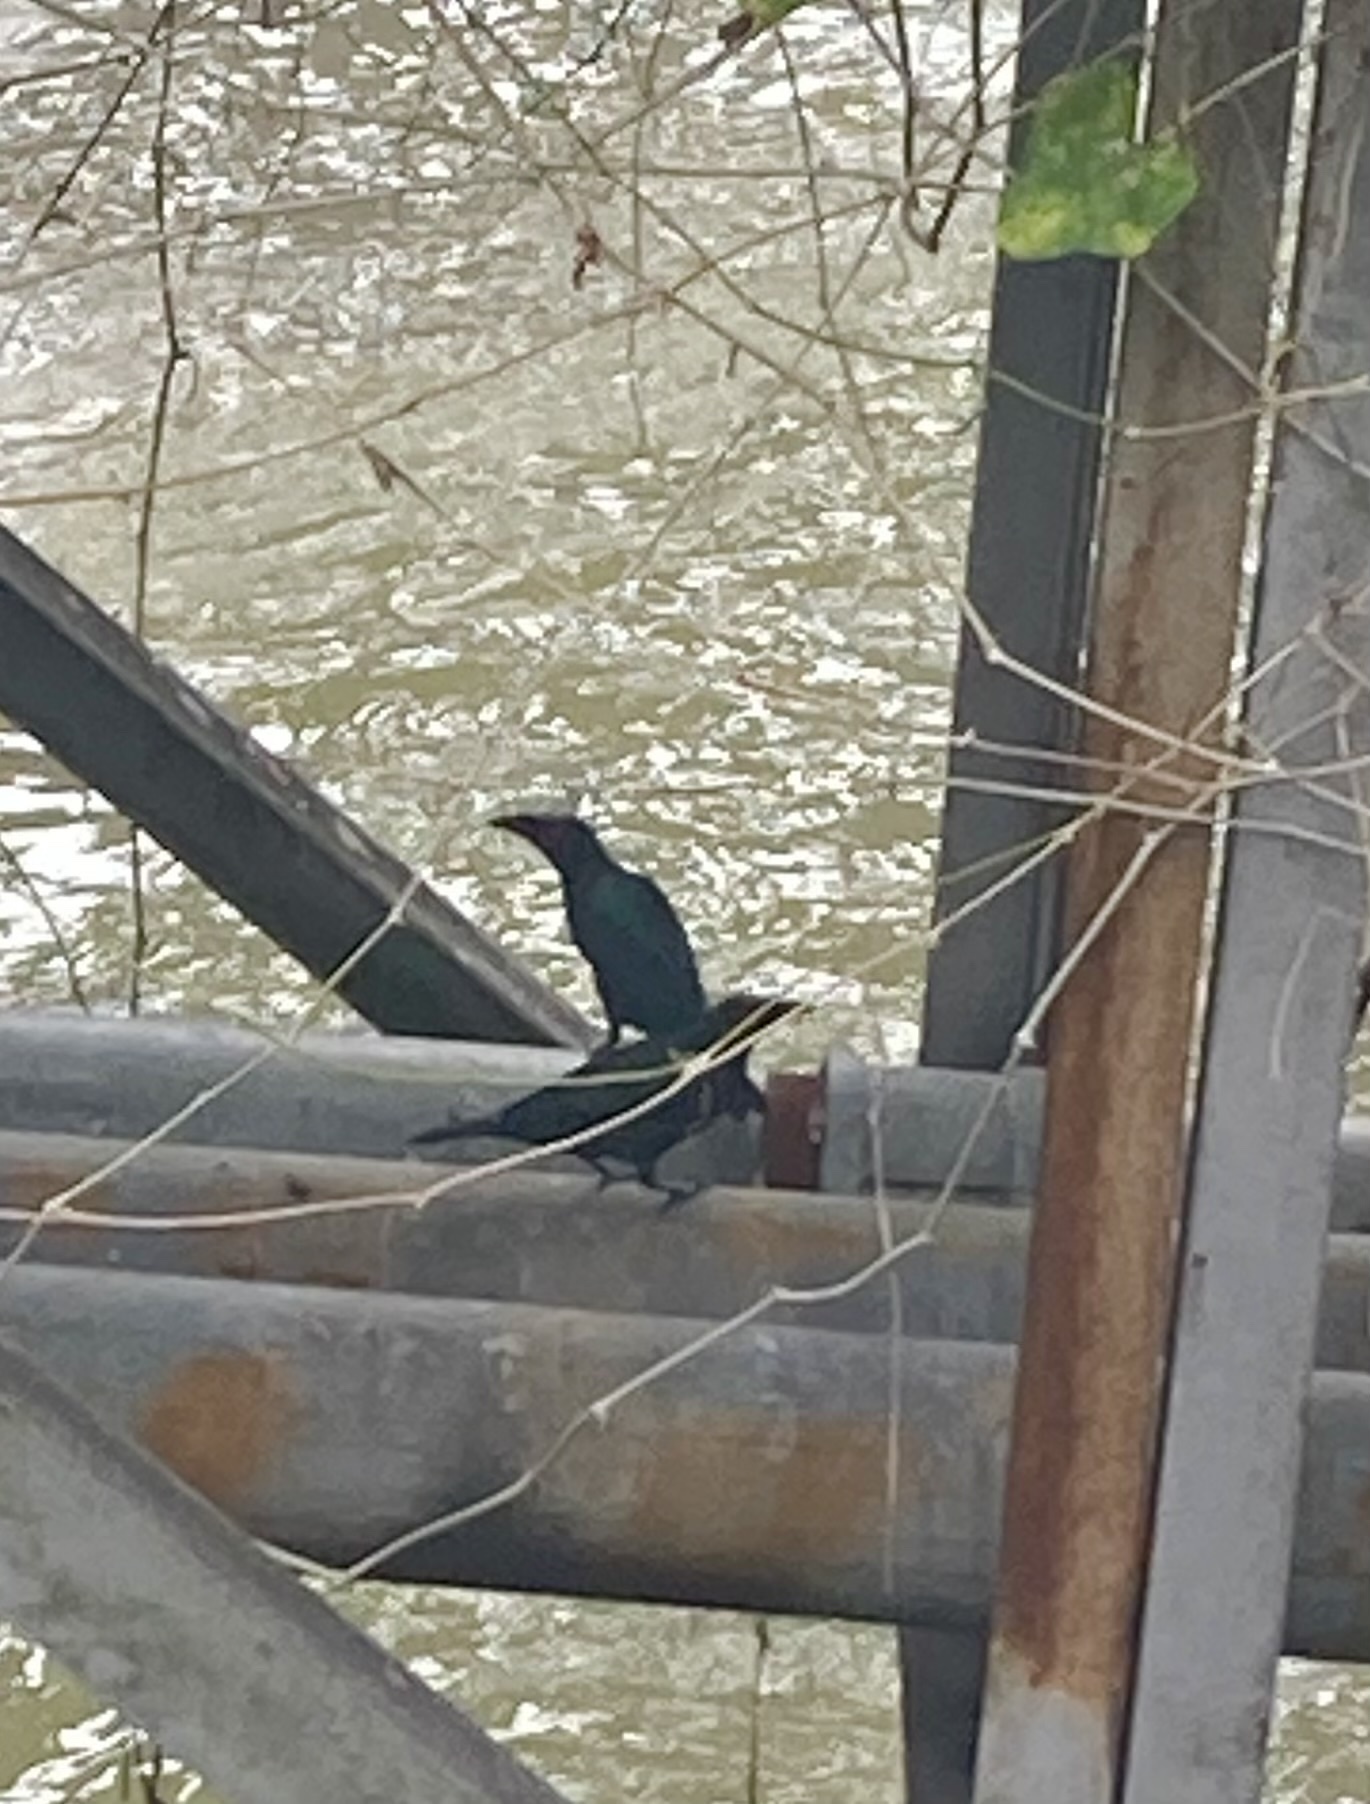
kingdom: Animalia
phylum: Chordata
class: Aves
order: Passeriformes
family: Sturnidae
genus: Aplonis
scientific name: Aplonis panayensis
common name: Asian glossy starling
